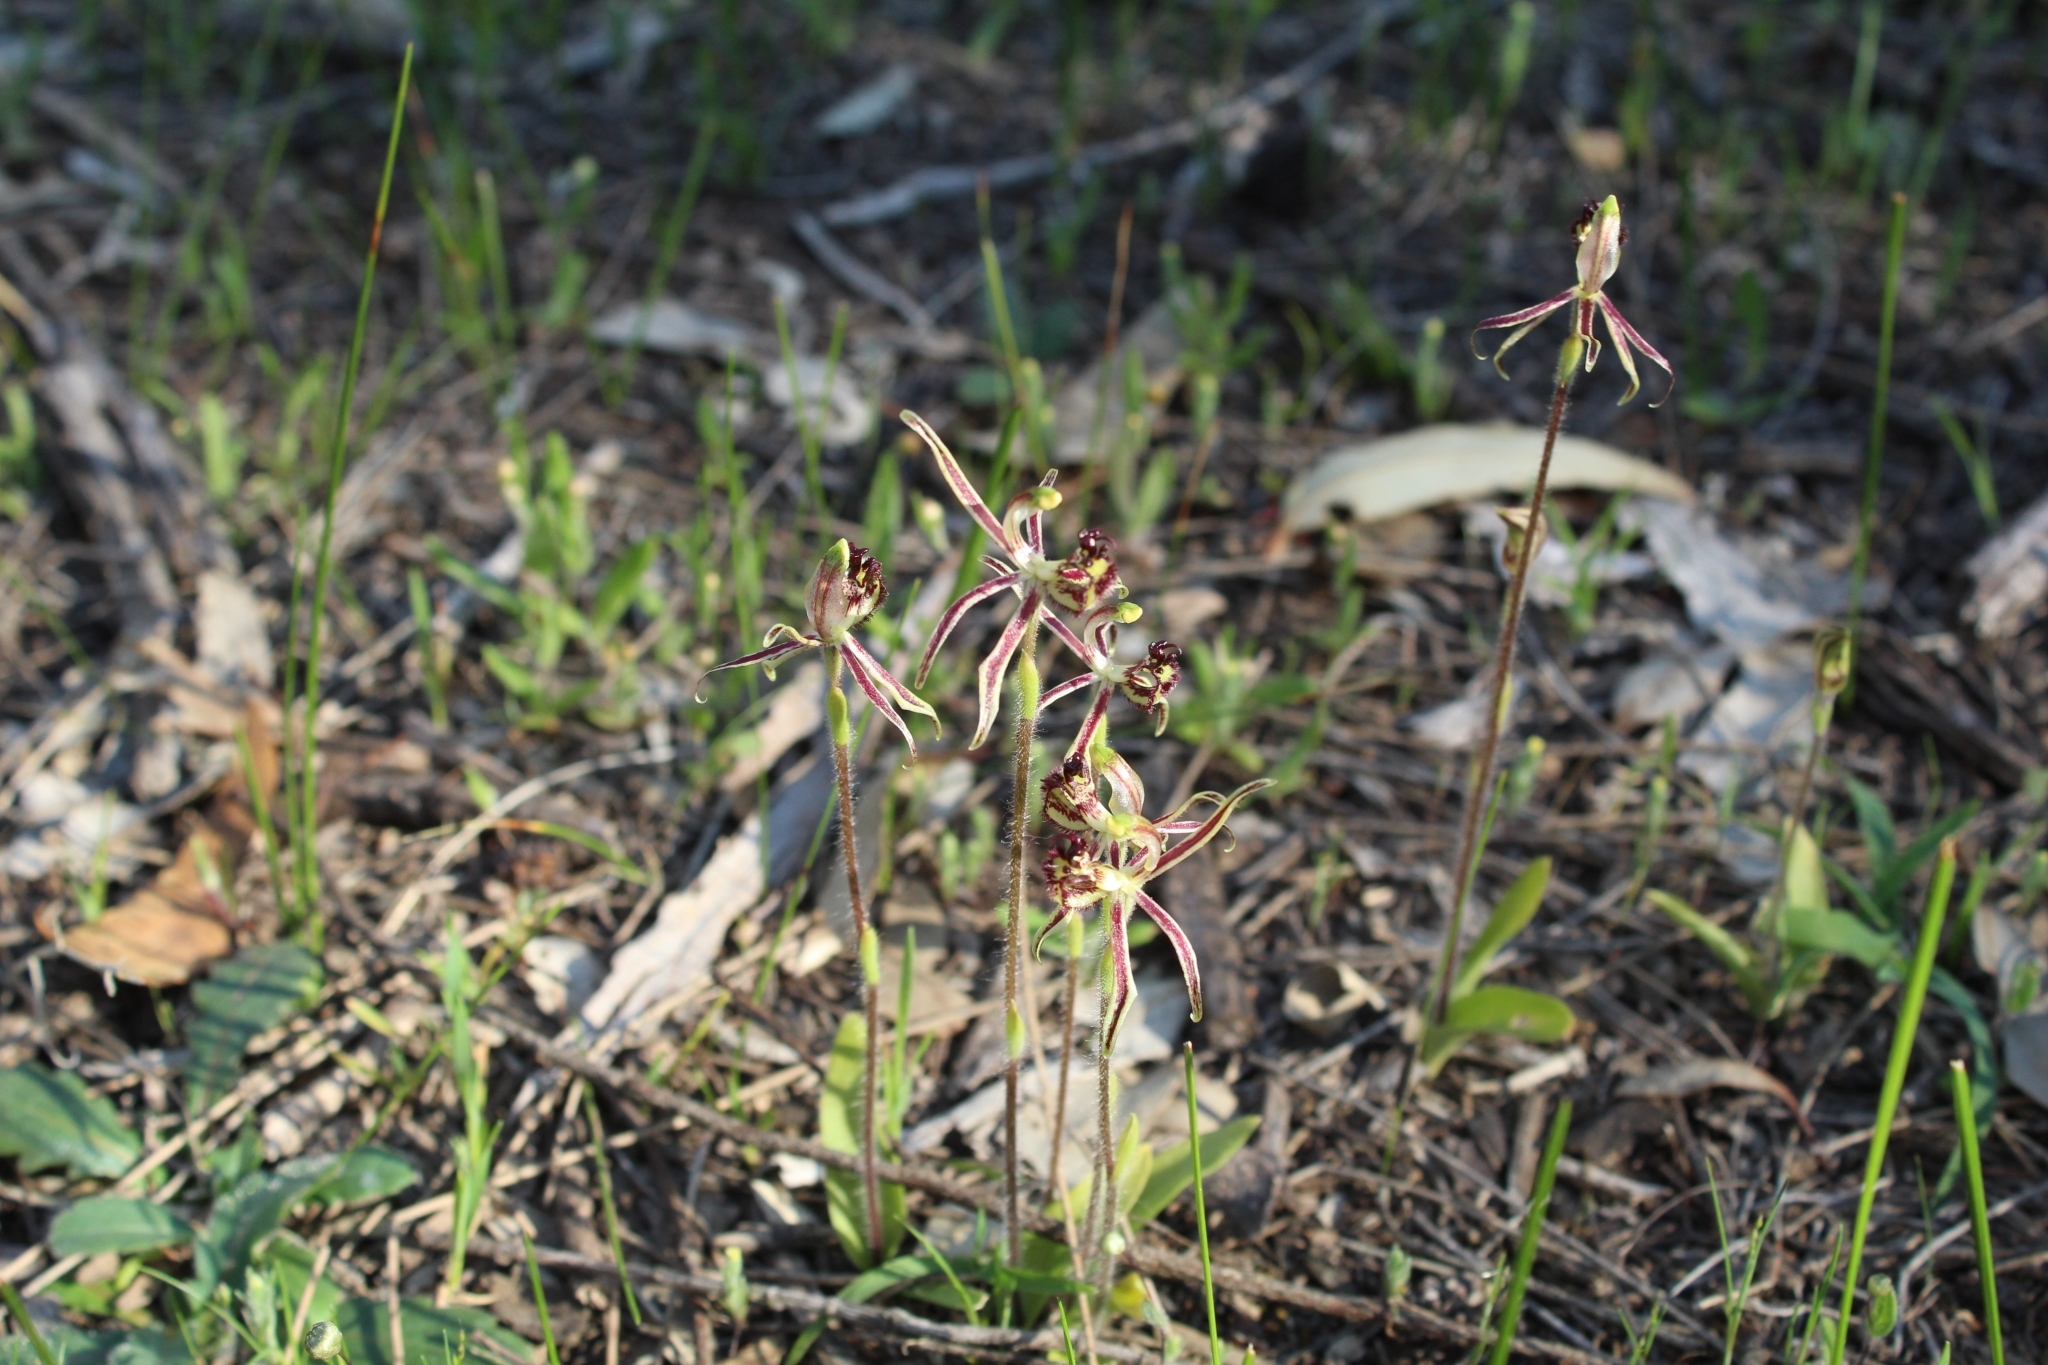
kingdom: Plantae
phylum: Tracheophyta
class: Liliopsida
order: Asparagales
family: Orchidaceae
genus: Caladenia
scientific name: Caladenia barbarossa
